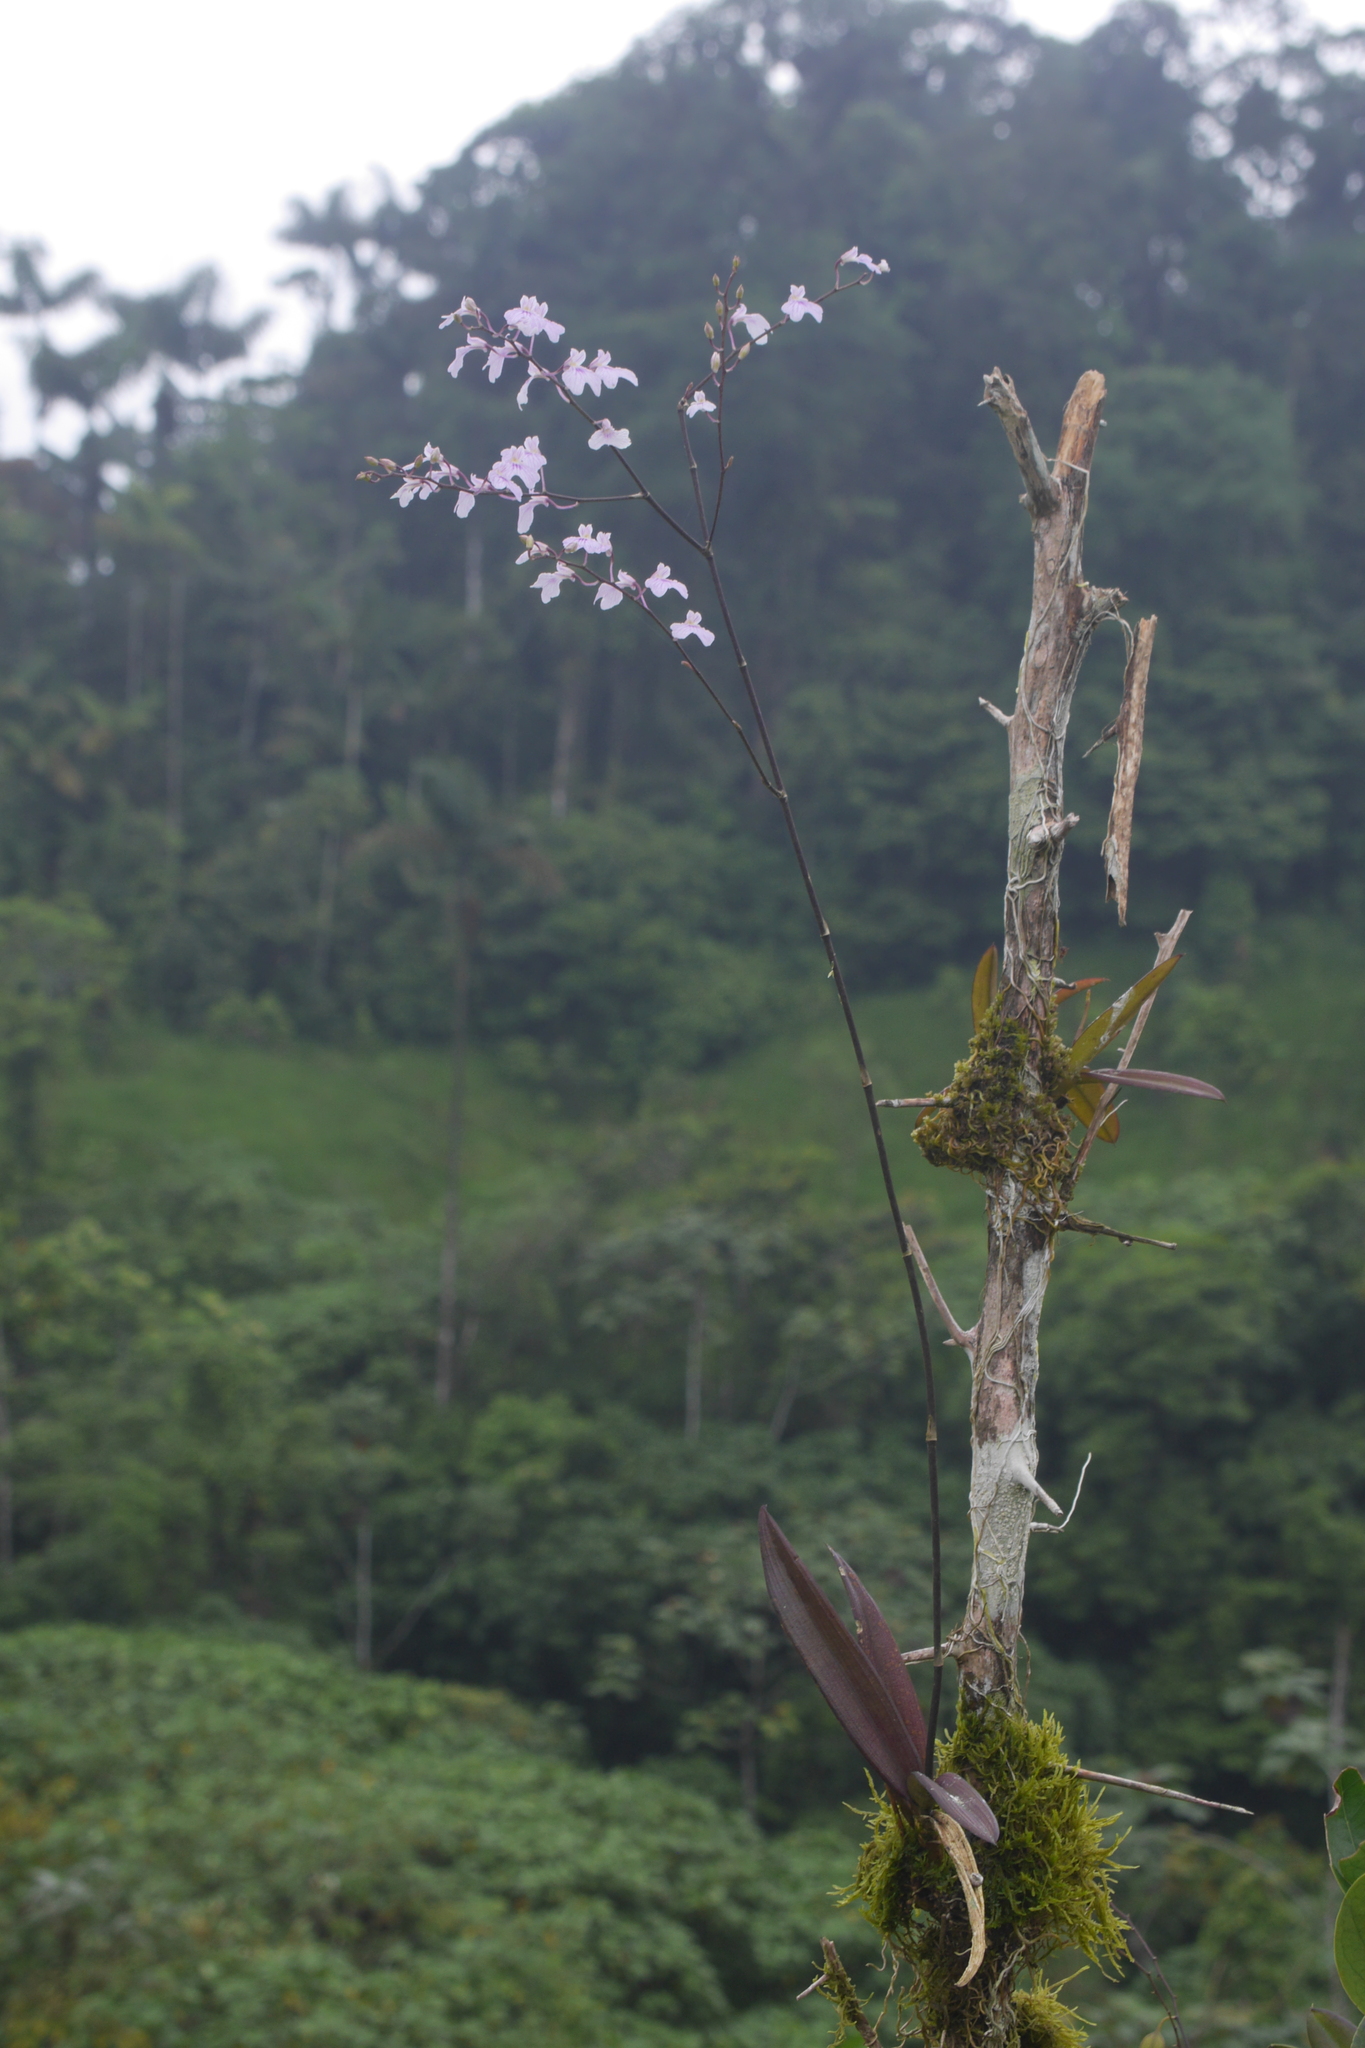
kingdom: Plantae
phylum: Tracheophyta
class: Liliopsida
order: Asparagales
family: Orchidaceae
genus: Ionopsis
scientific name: Ionopsis utricularioides
